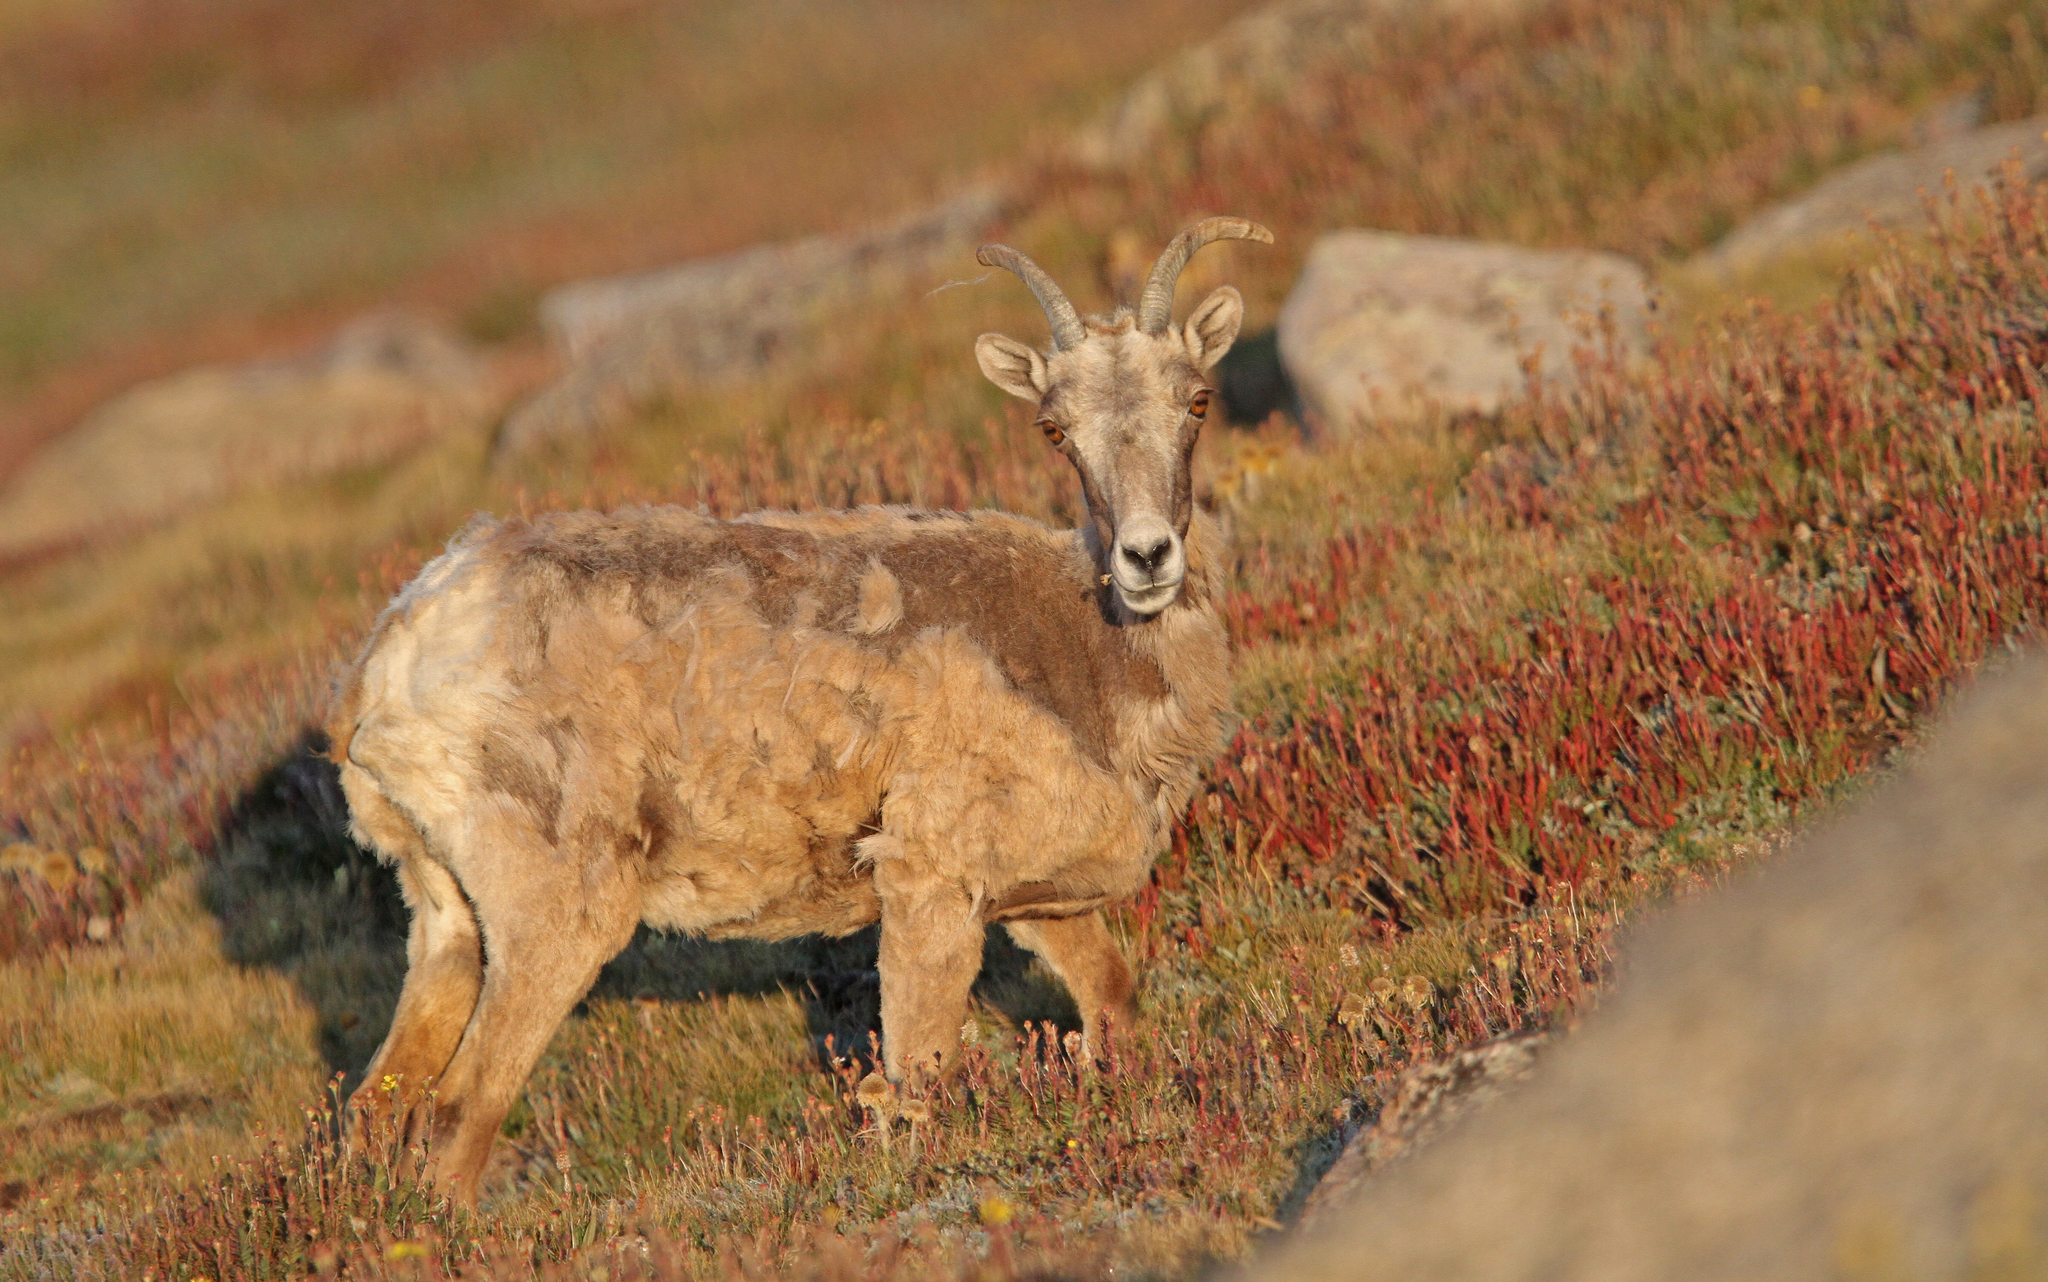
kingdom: Animalia
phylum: Chordata
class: Mammalia
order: Artiodactyla
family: Bovidae
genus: Ovis
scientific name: Ovis canadensis
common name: Bighorn sheep
